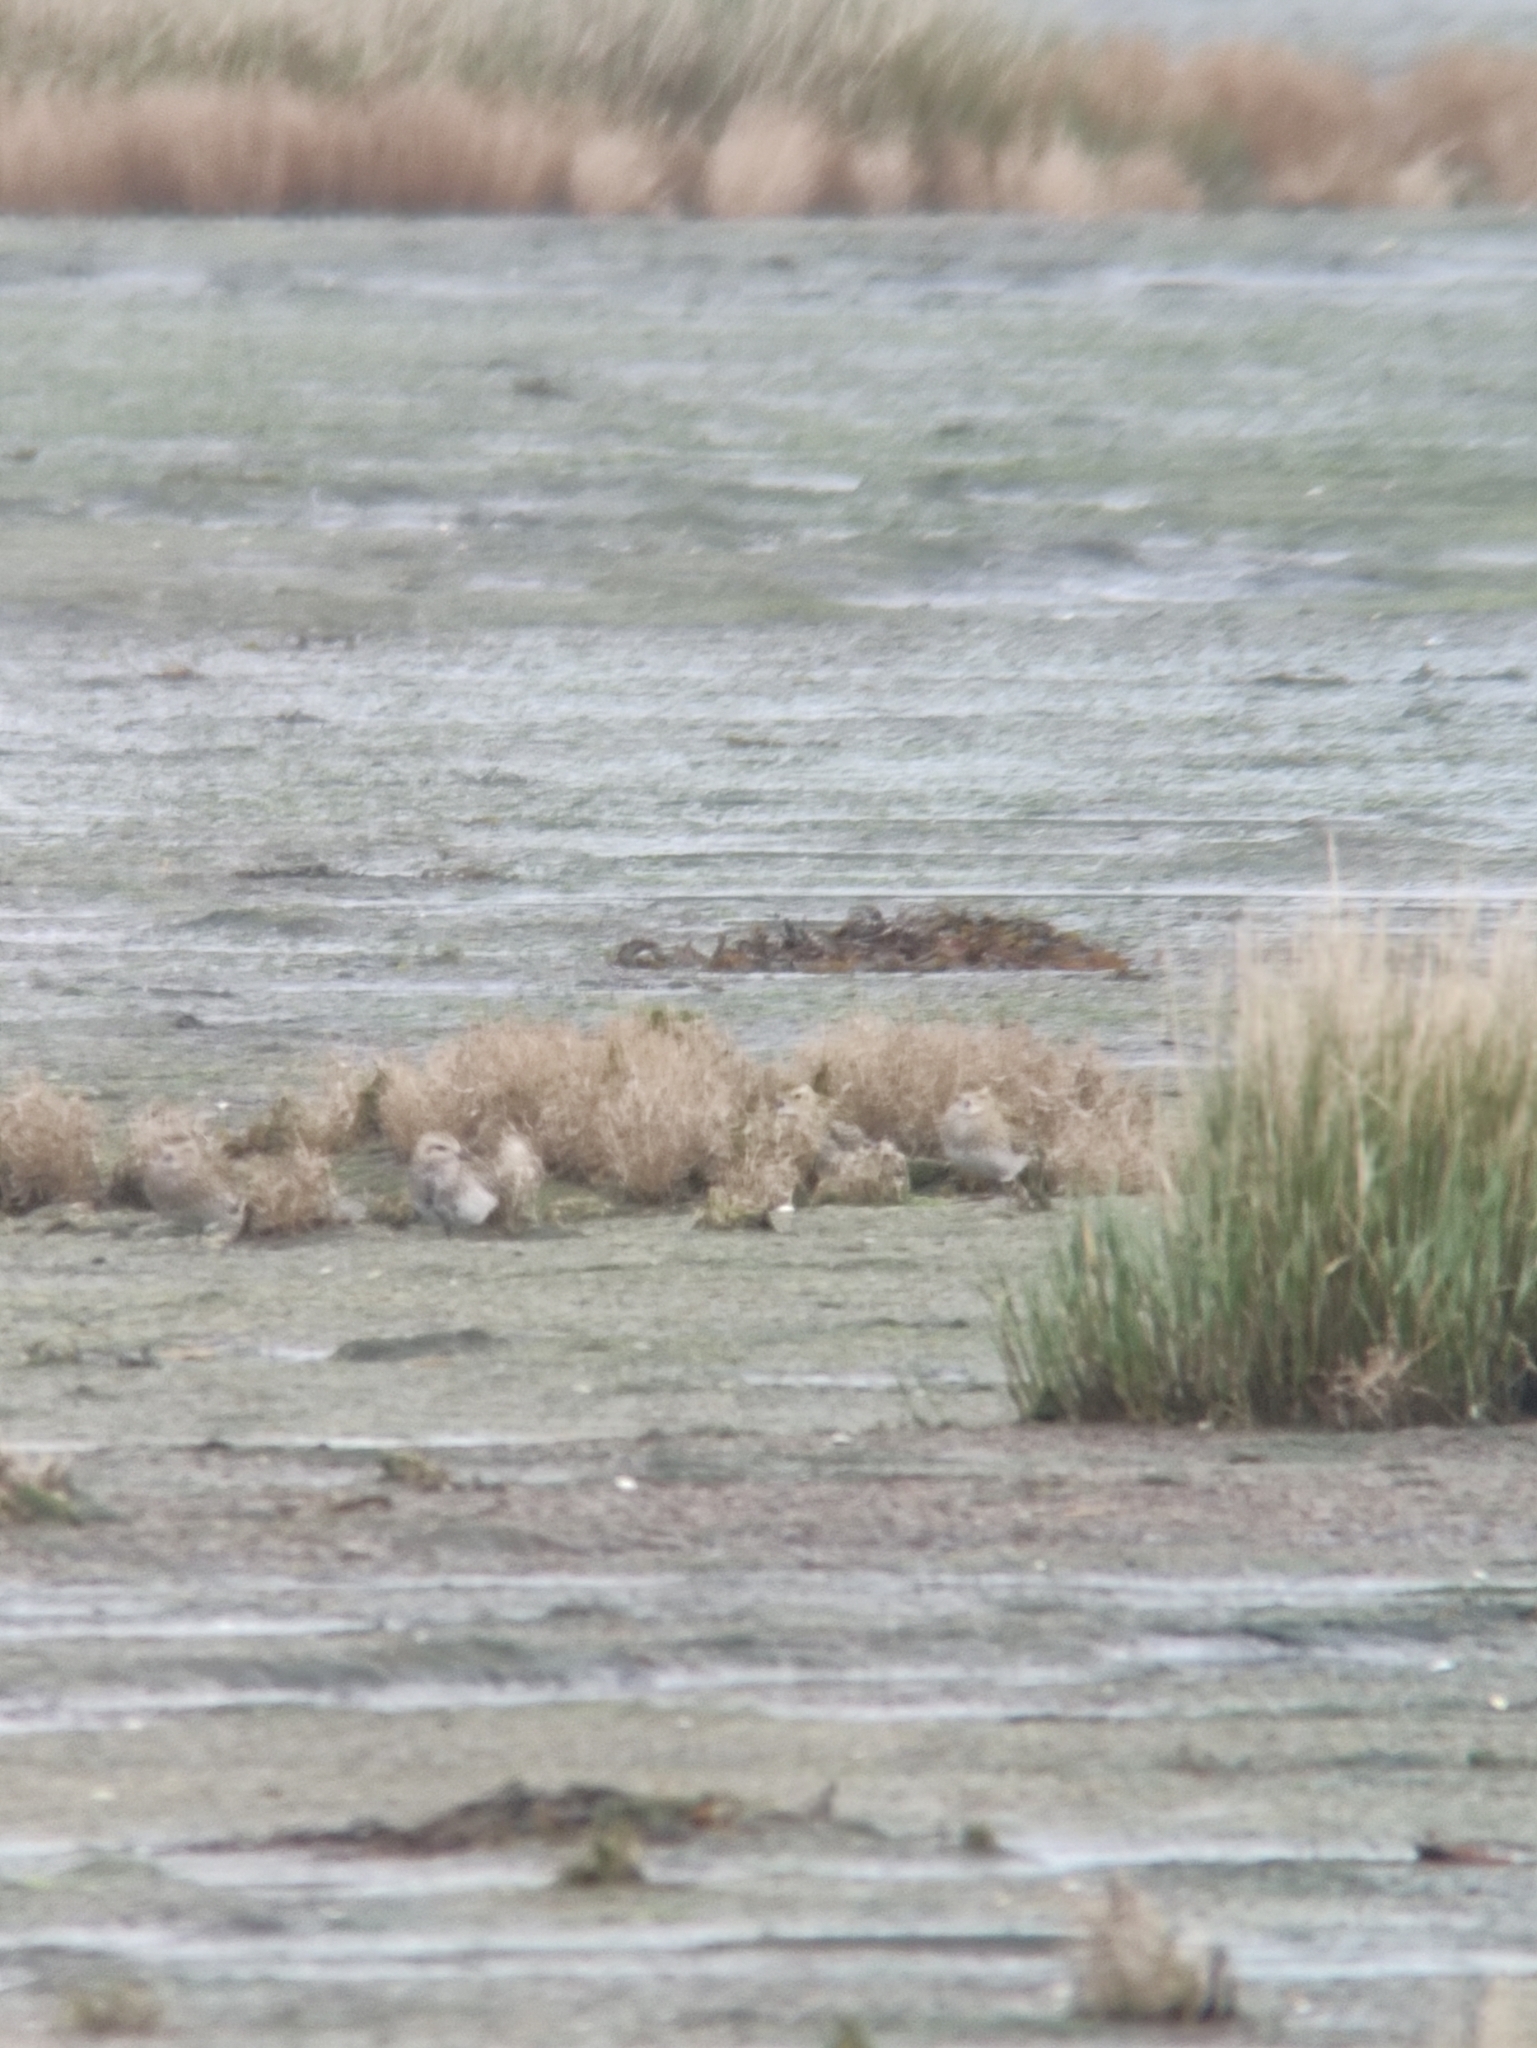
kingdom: Animalia
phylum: Chordata
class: Aves
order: Charadriiformes
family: Charadriidae
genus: Pluvialis
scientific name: Pluvialis apricaria
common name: European golden plover
